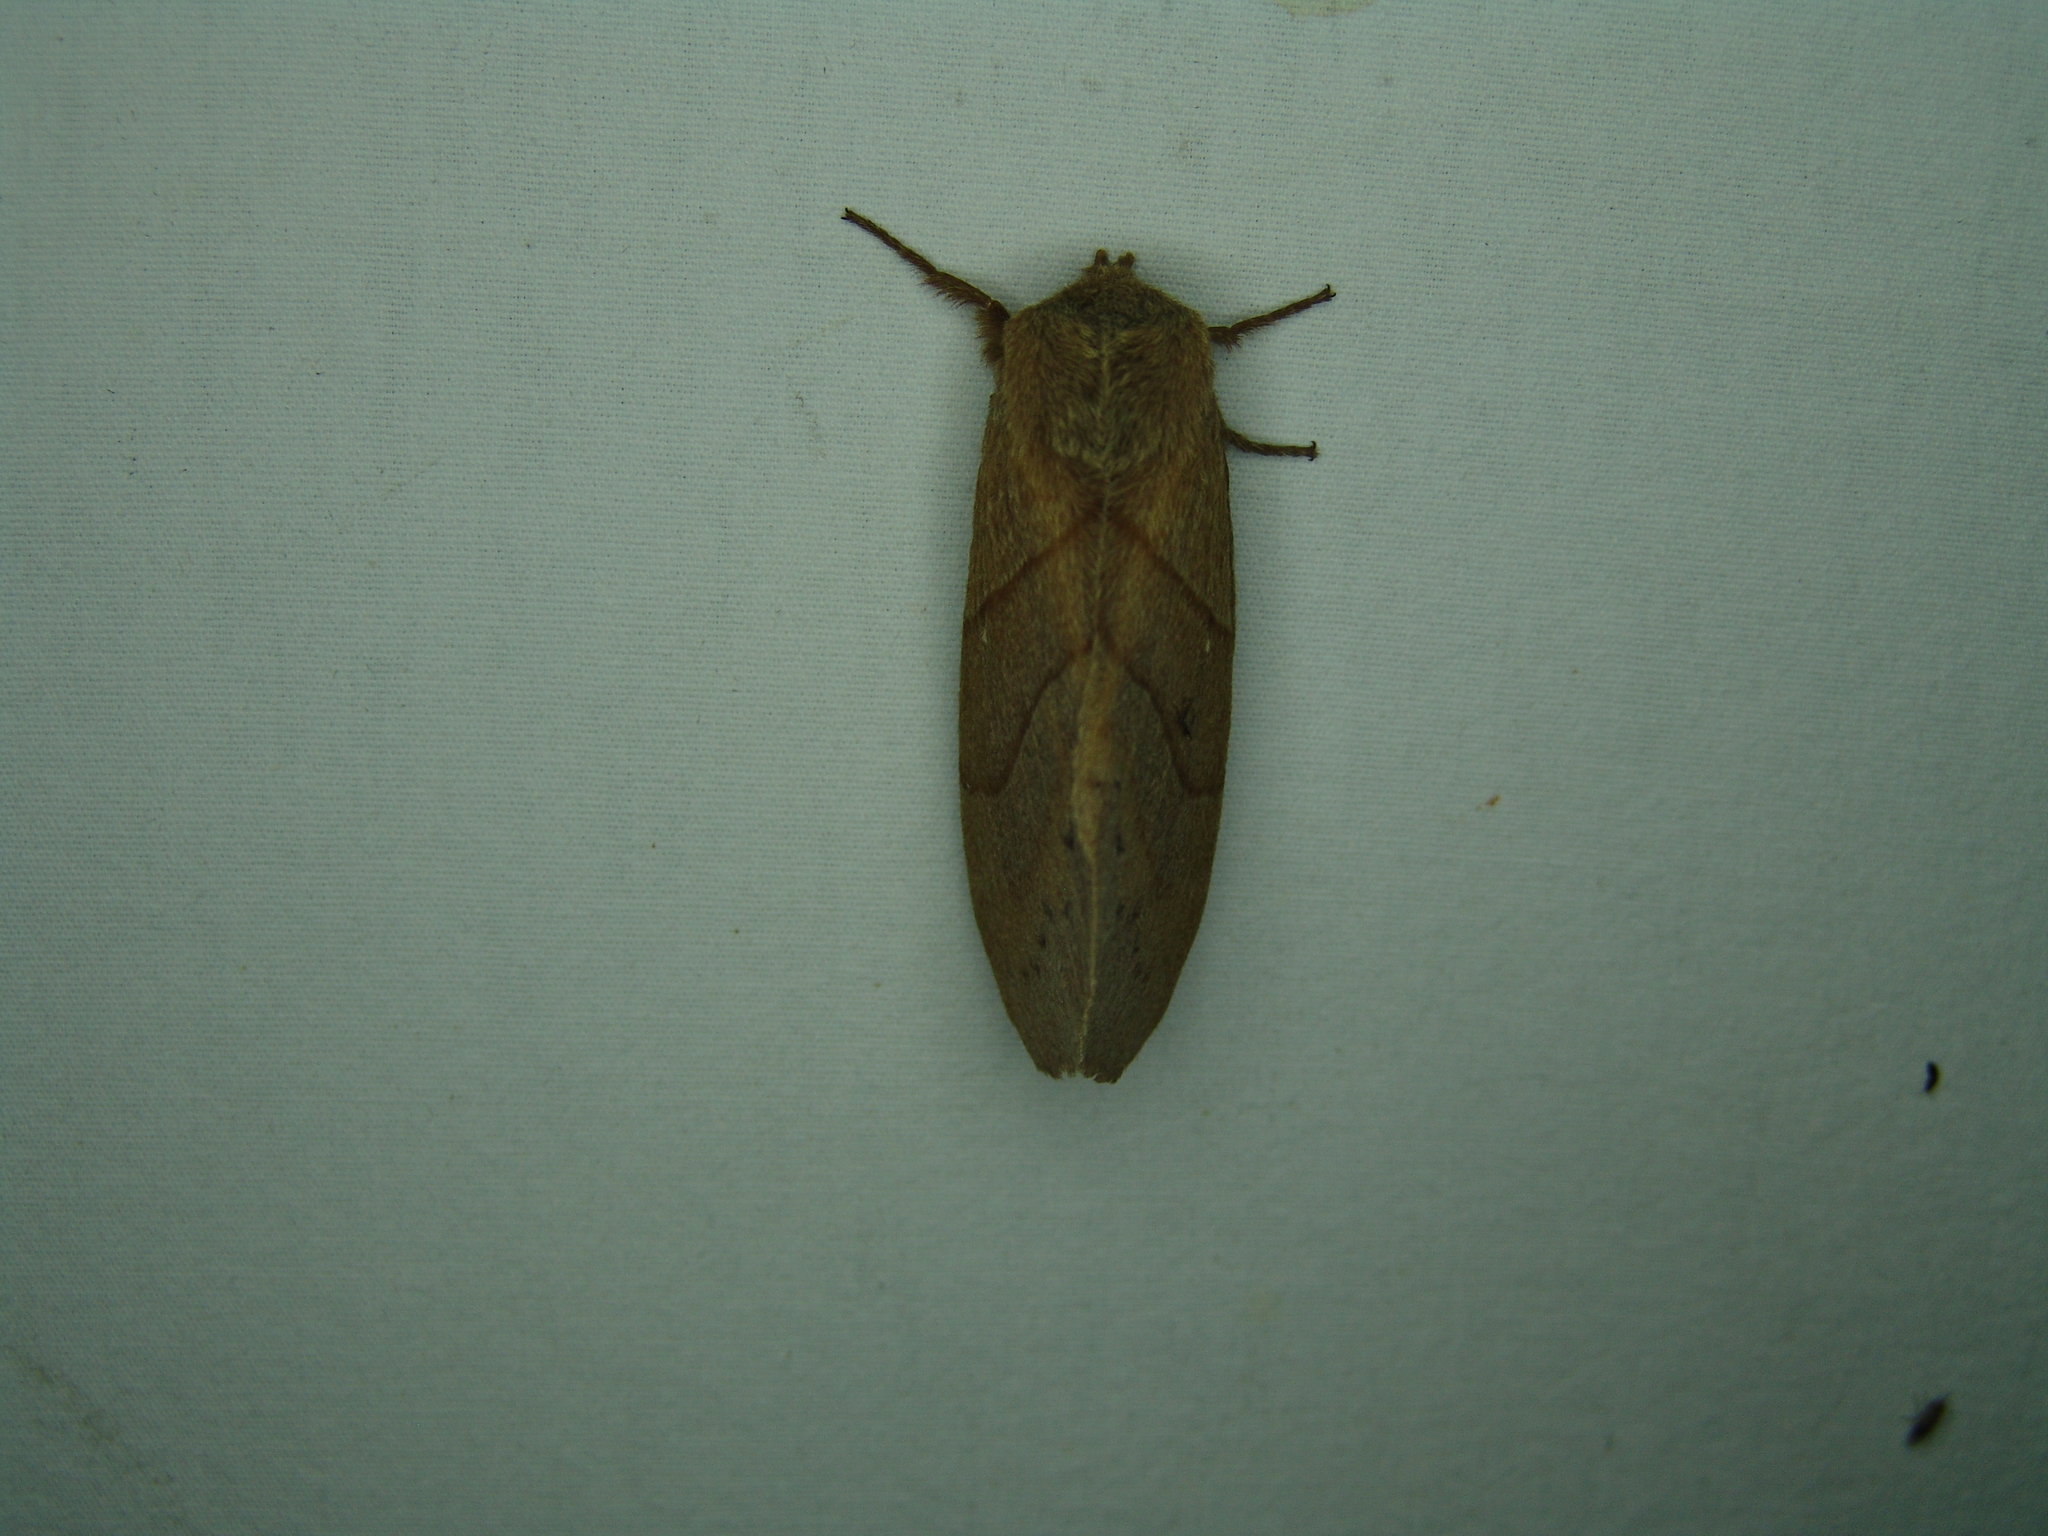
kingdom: Animalia
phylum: Arthropoda
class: Insecta
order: Lepidoptera
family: Lasiocampidae
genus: Dicogaster
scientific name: Dicogaster coronada
